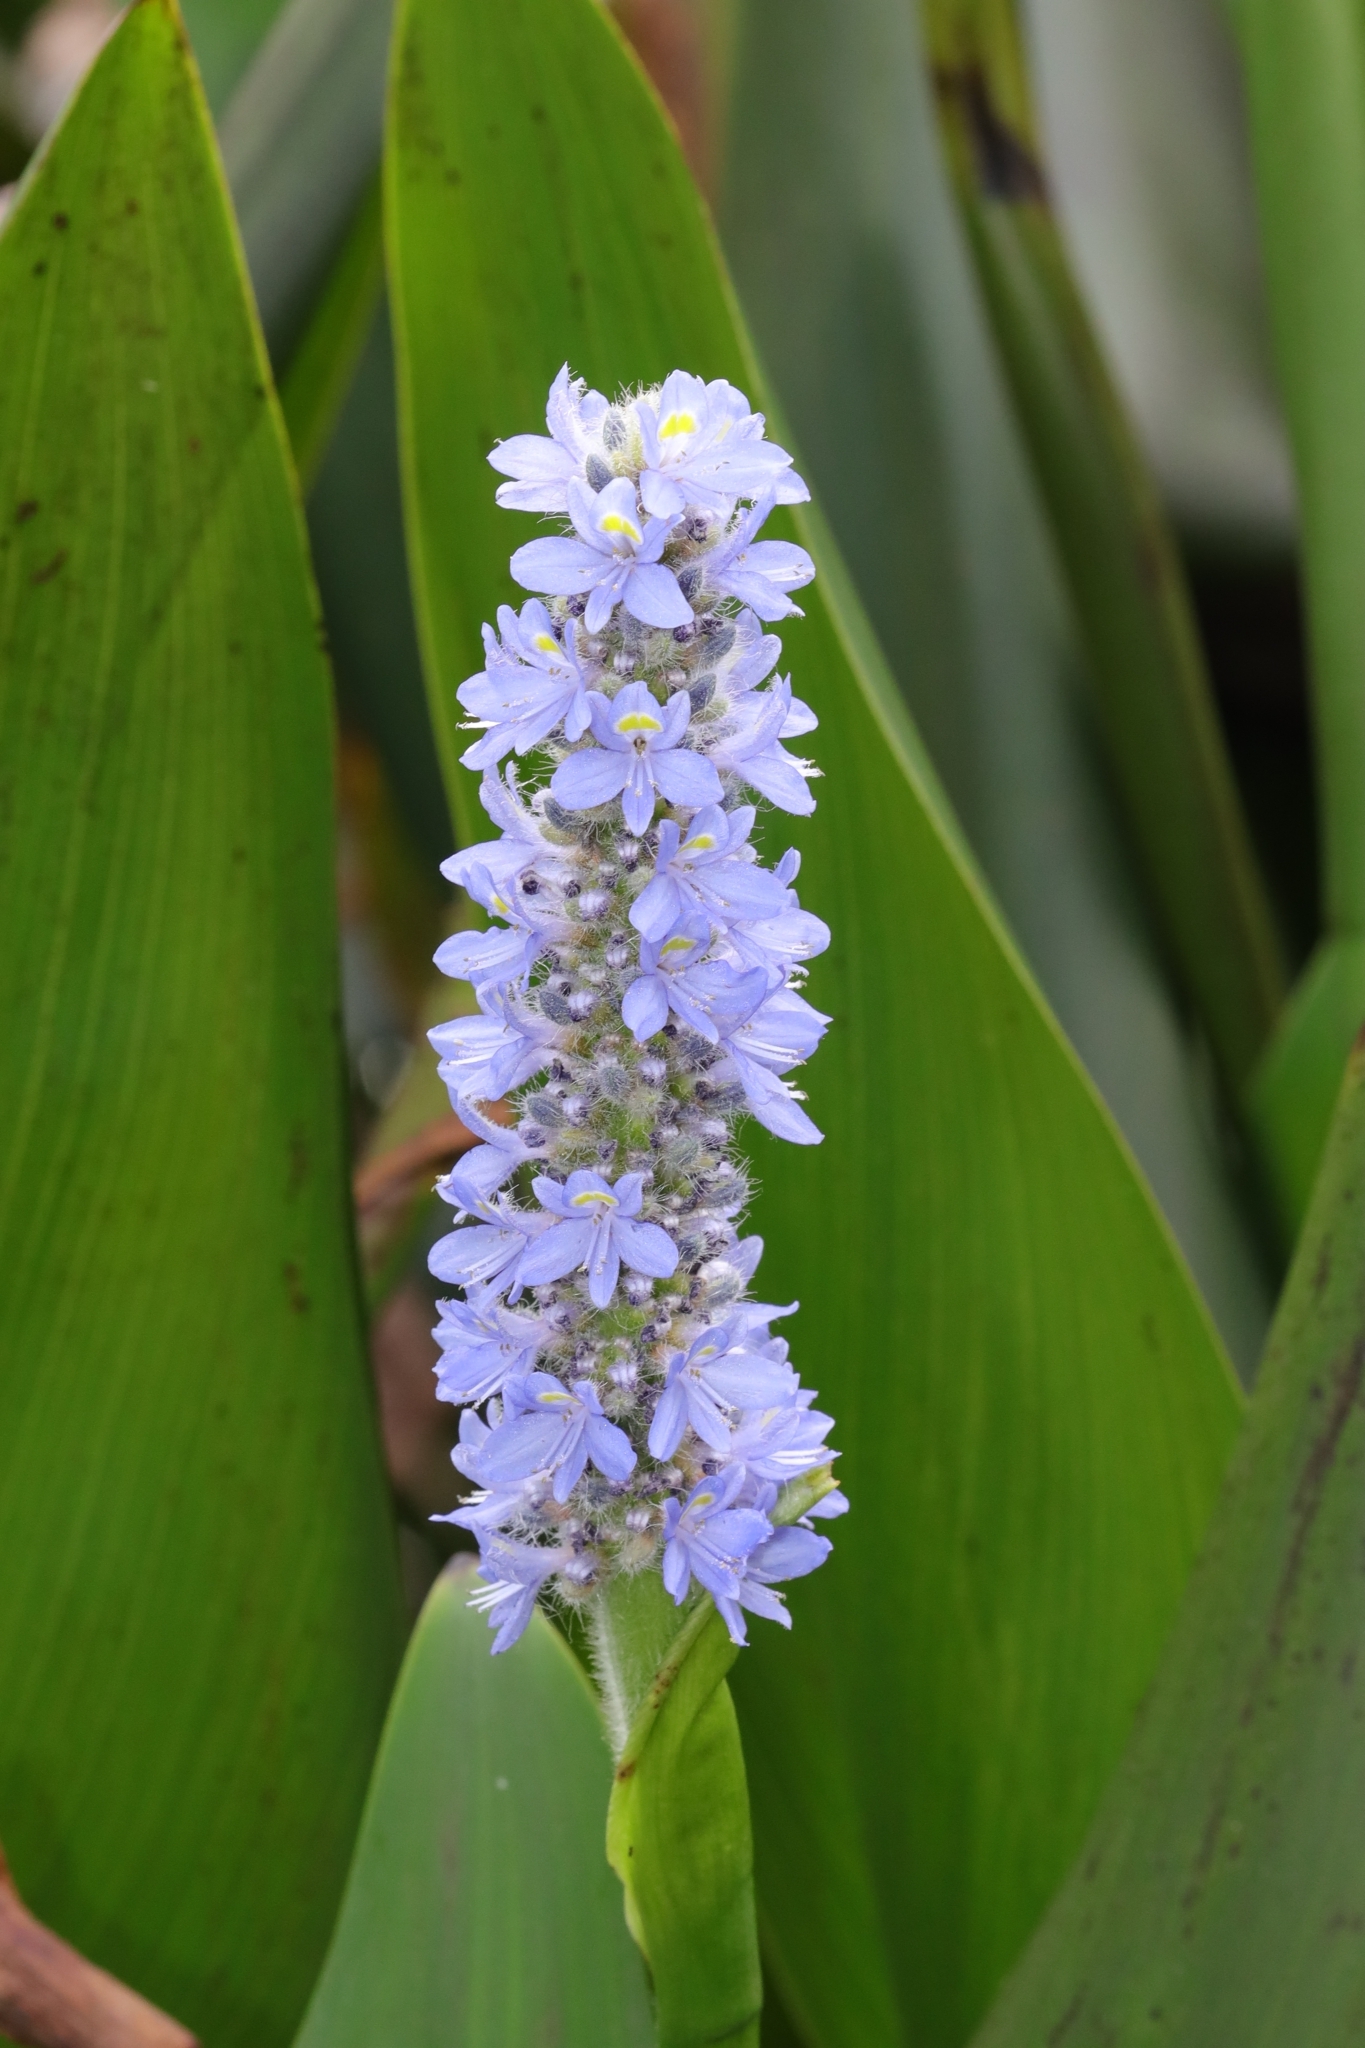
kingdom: Plantae
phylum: Tracheophyta
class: Liliopsida
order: Commelinales
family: Pontederiaceae
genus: Pontederia
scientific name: Pontederia cordata
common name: Pickerelweed
